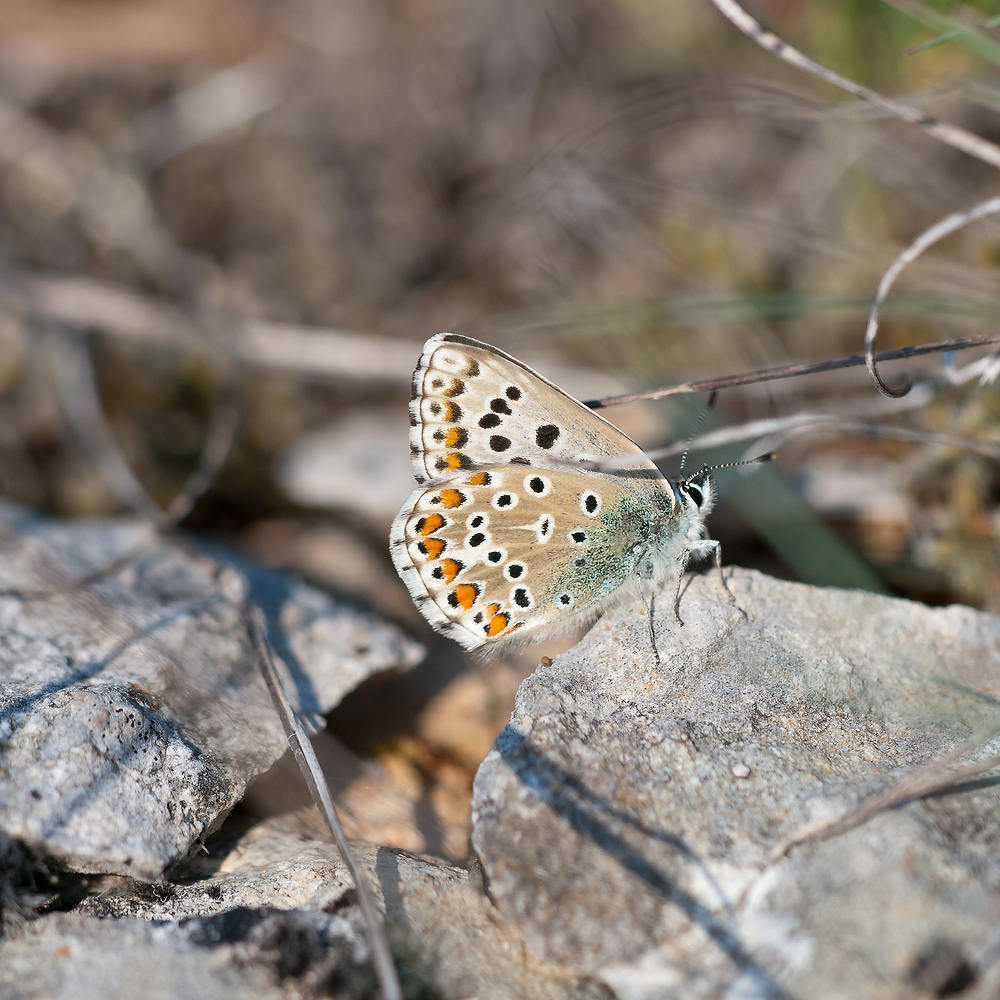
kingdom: Animalia
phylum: Arthropoda
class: Insecta
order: Lepidoptera
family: Lycaenidae
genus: Lysandra
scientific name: Lysandra hispana
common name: Provence chalkhill blue
